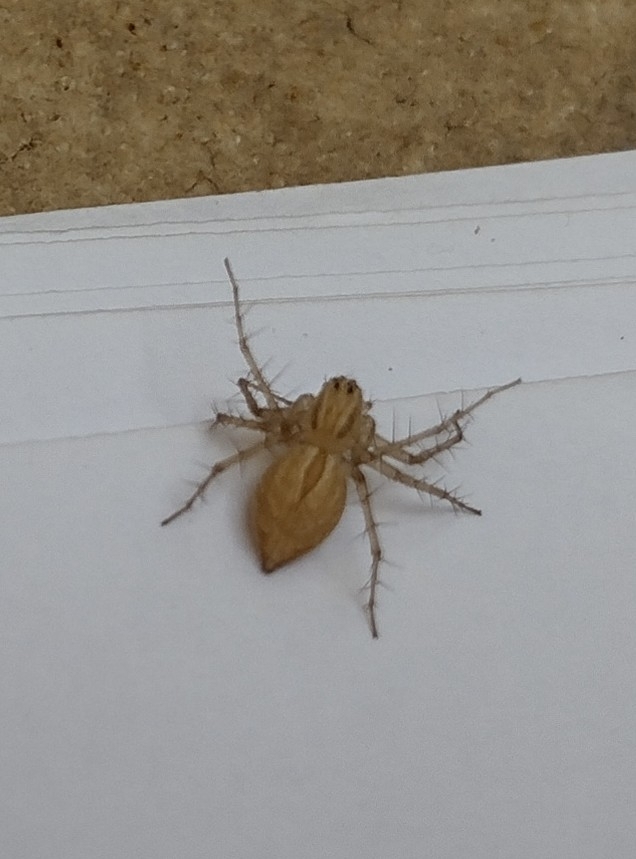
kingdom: Animalia
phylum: Arthropoda
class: Arachnida
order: Araneae
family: Oxyopidae
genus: Oxyopes
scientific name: Oxyopes salticus
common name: Lynx spiders
